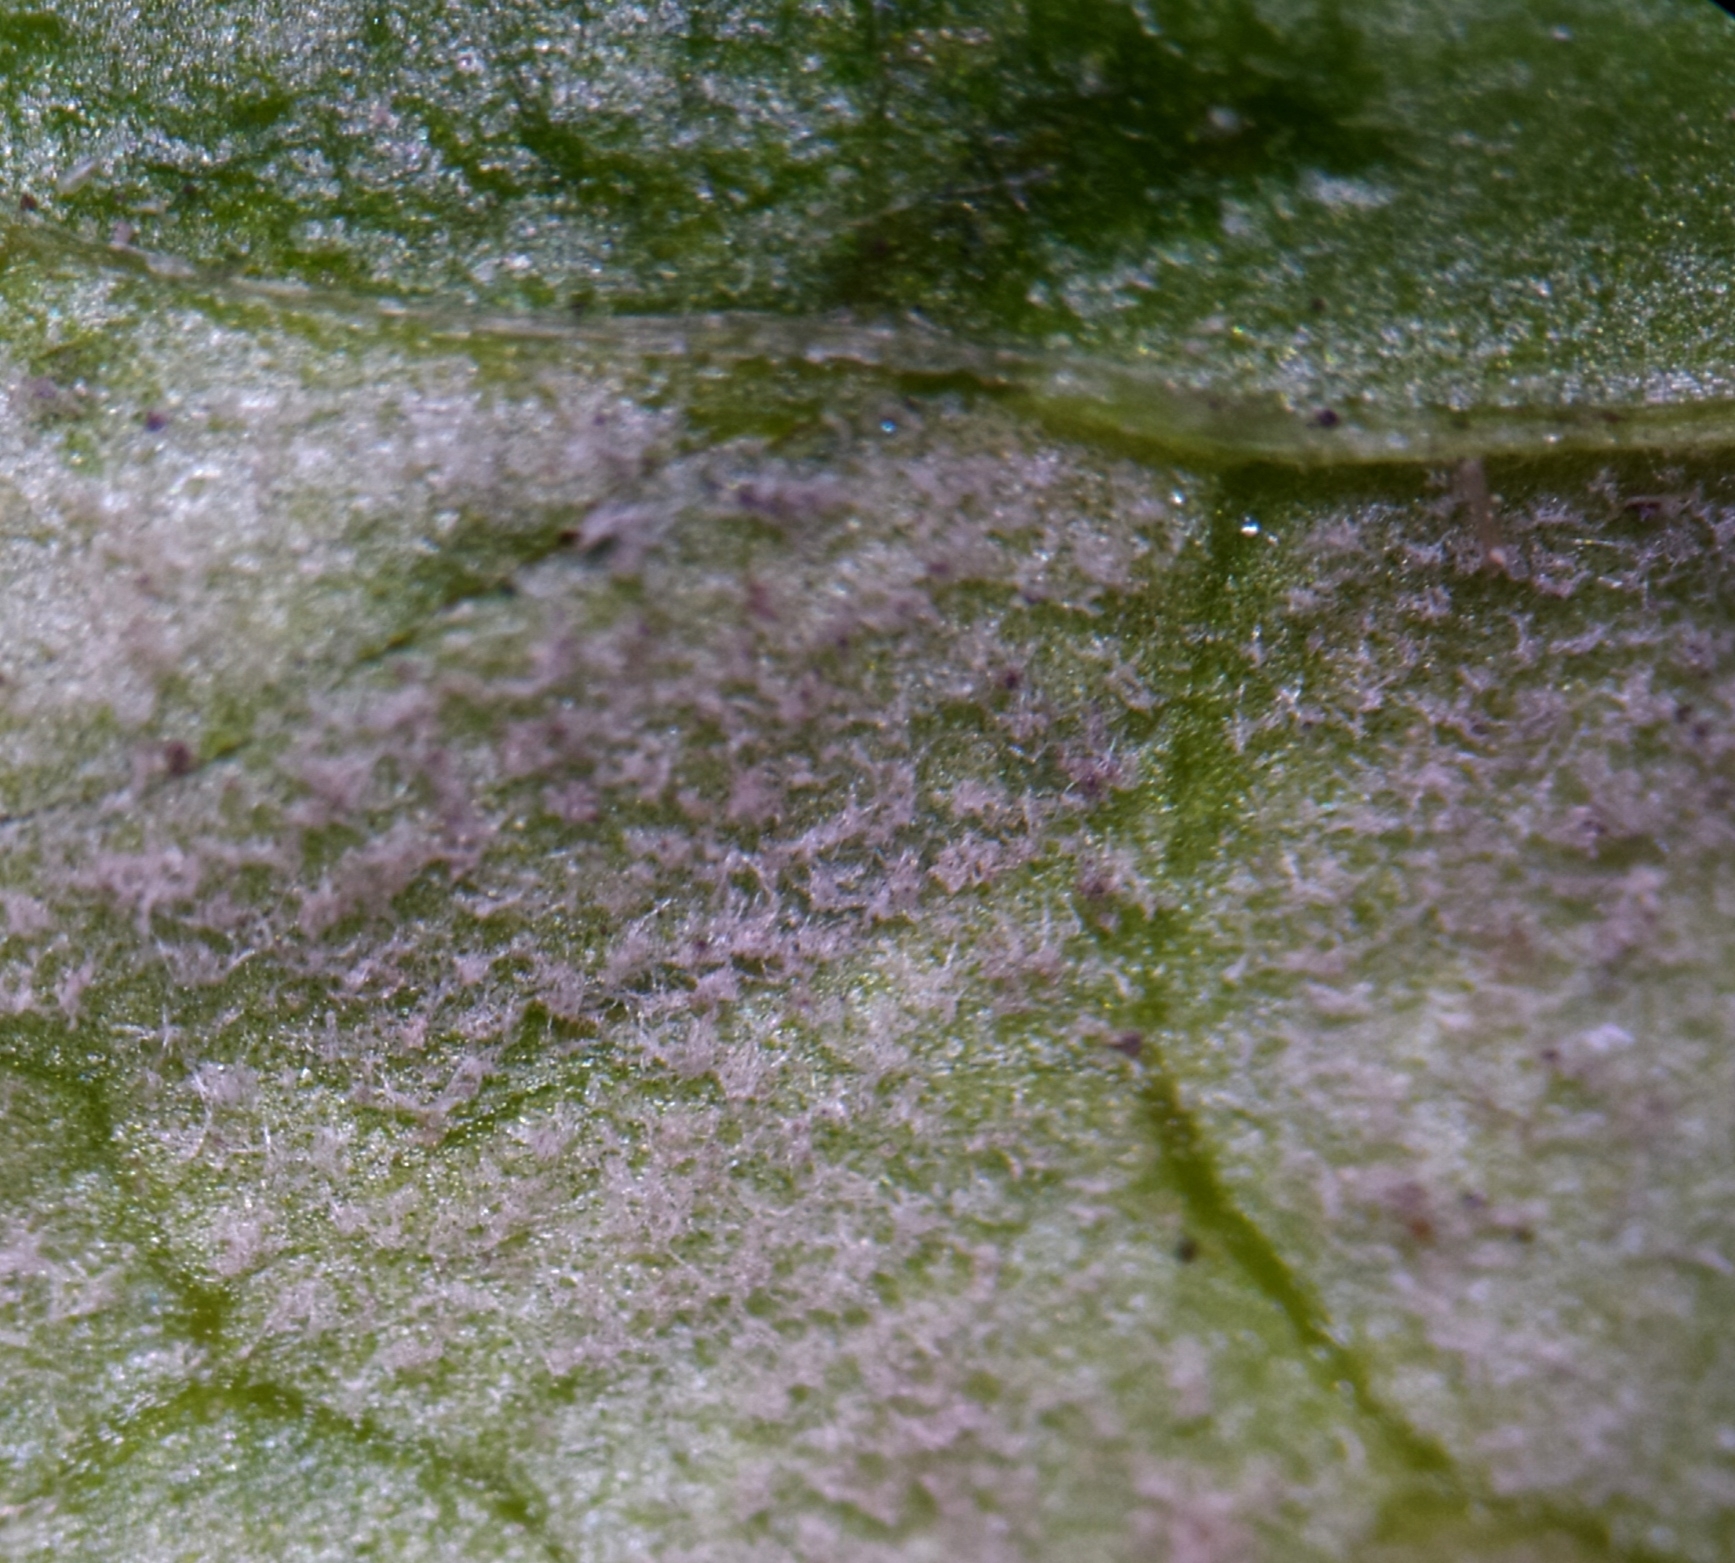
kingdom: Chromista
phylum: Oomycota
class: Peronosporea
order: Peronosporales
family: Peronosporaceae
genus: Peronospora
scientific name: Peronospora chenopodii
